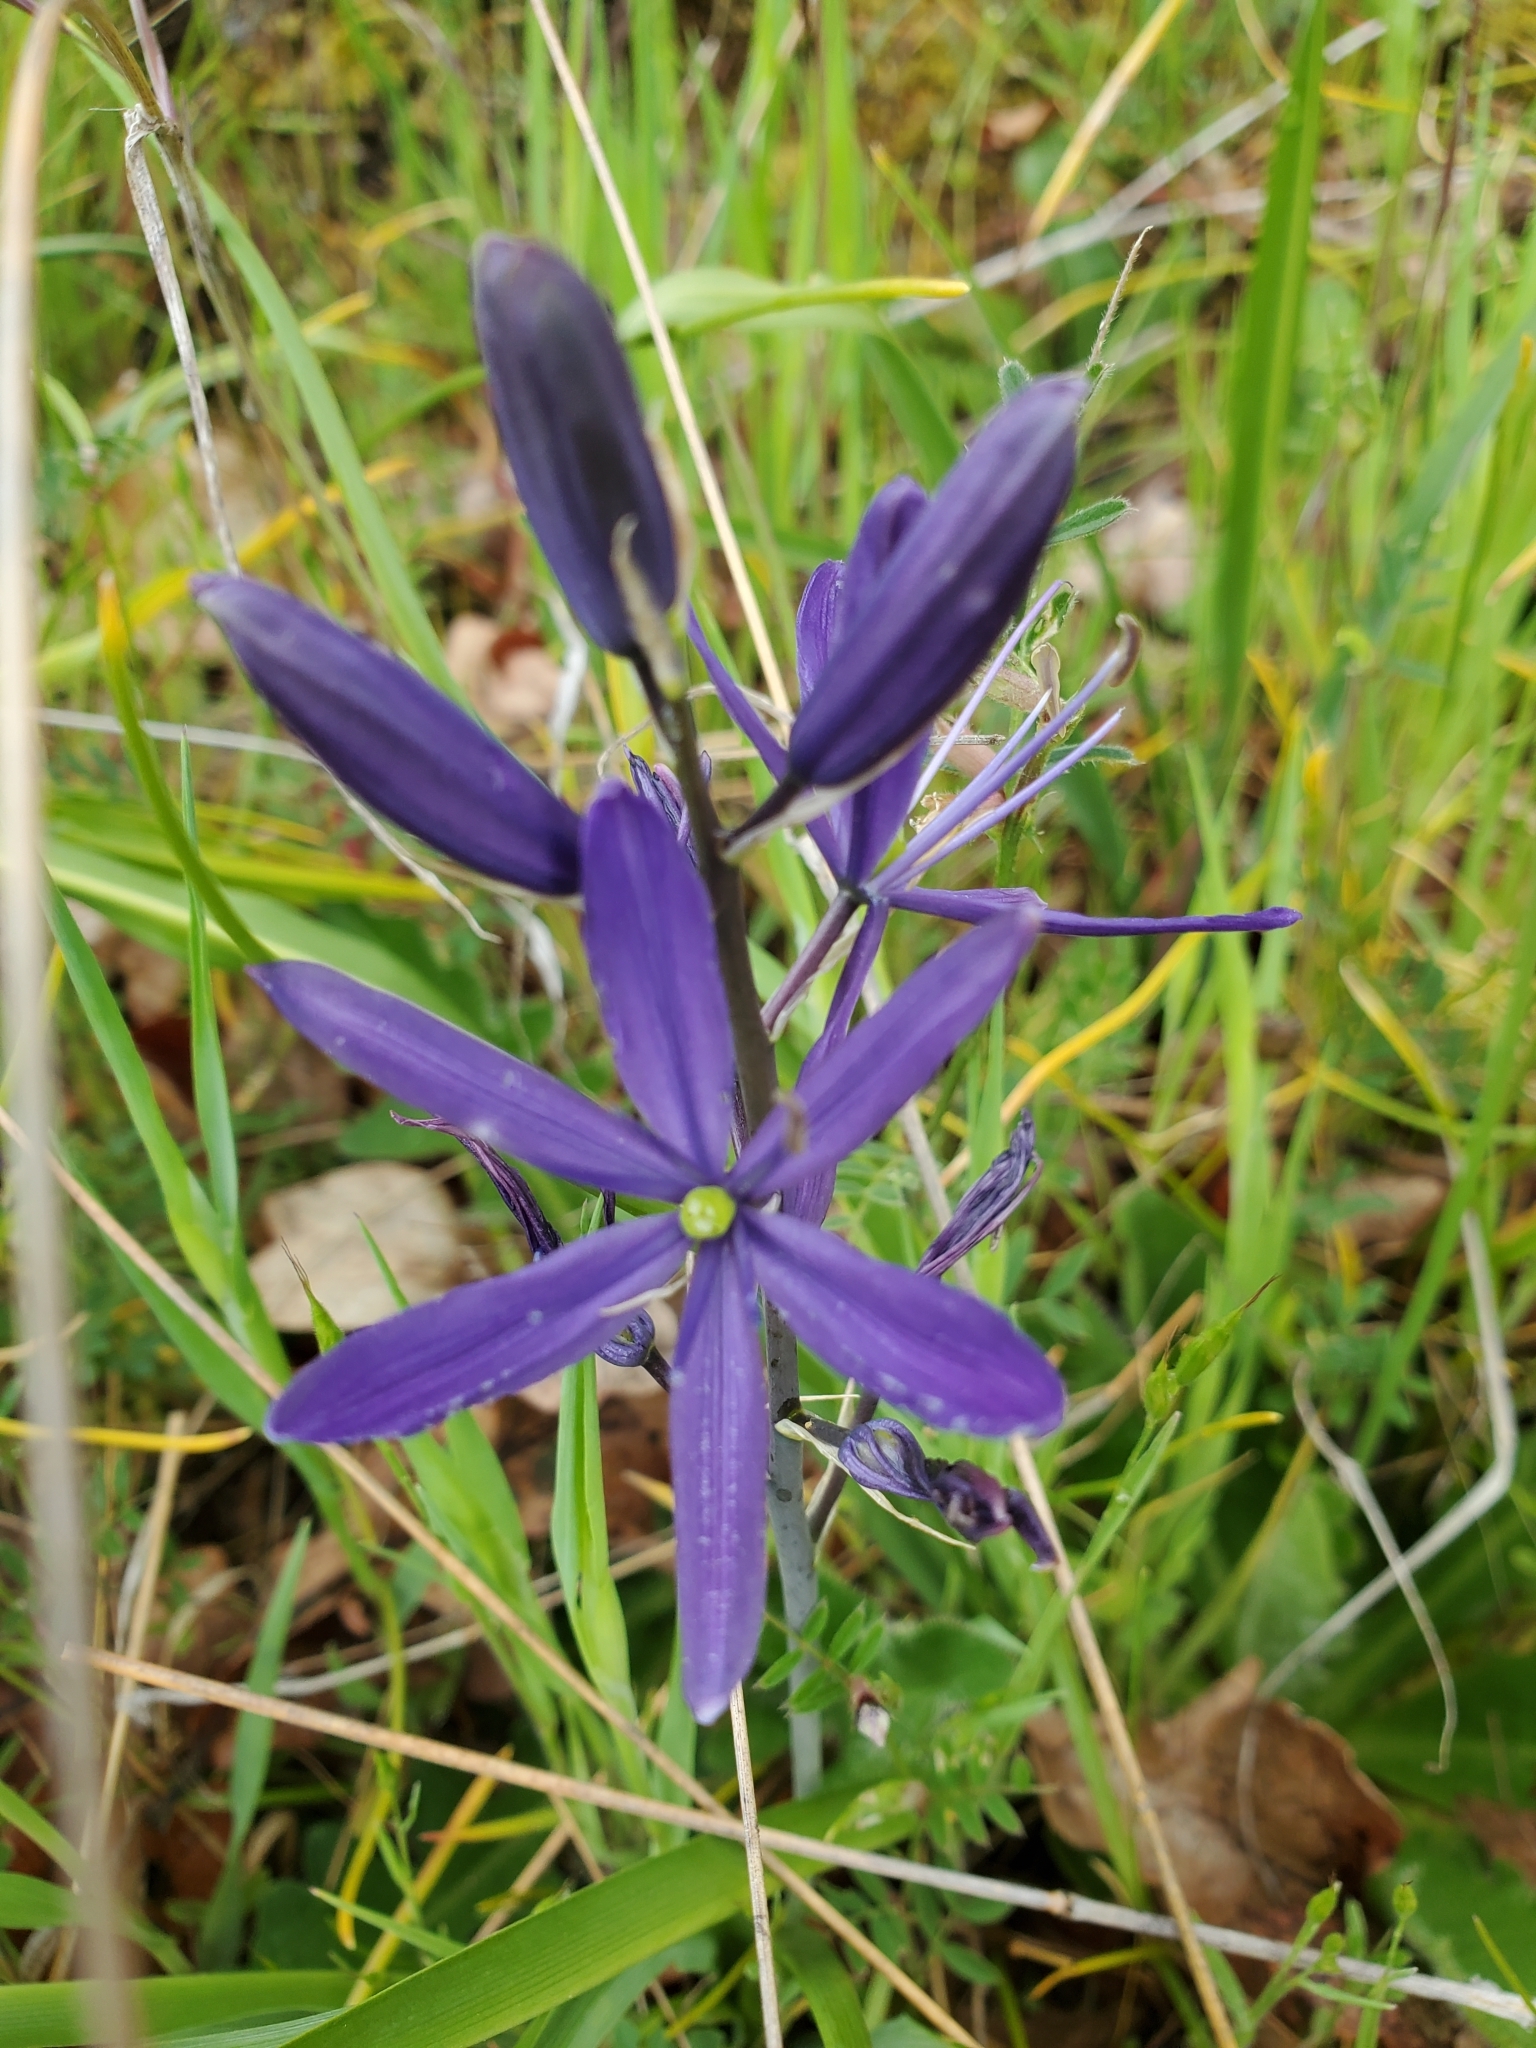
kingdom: Plantae
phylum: Tracheophyta
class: Liliopsida
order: Asparagales
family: Asparagaceae
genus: Camassia
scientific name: Camassia leichtlinii
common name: Leichtlin's camas
